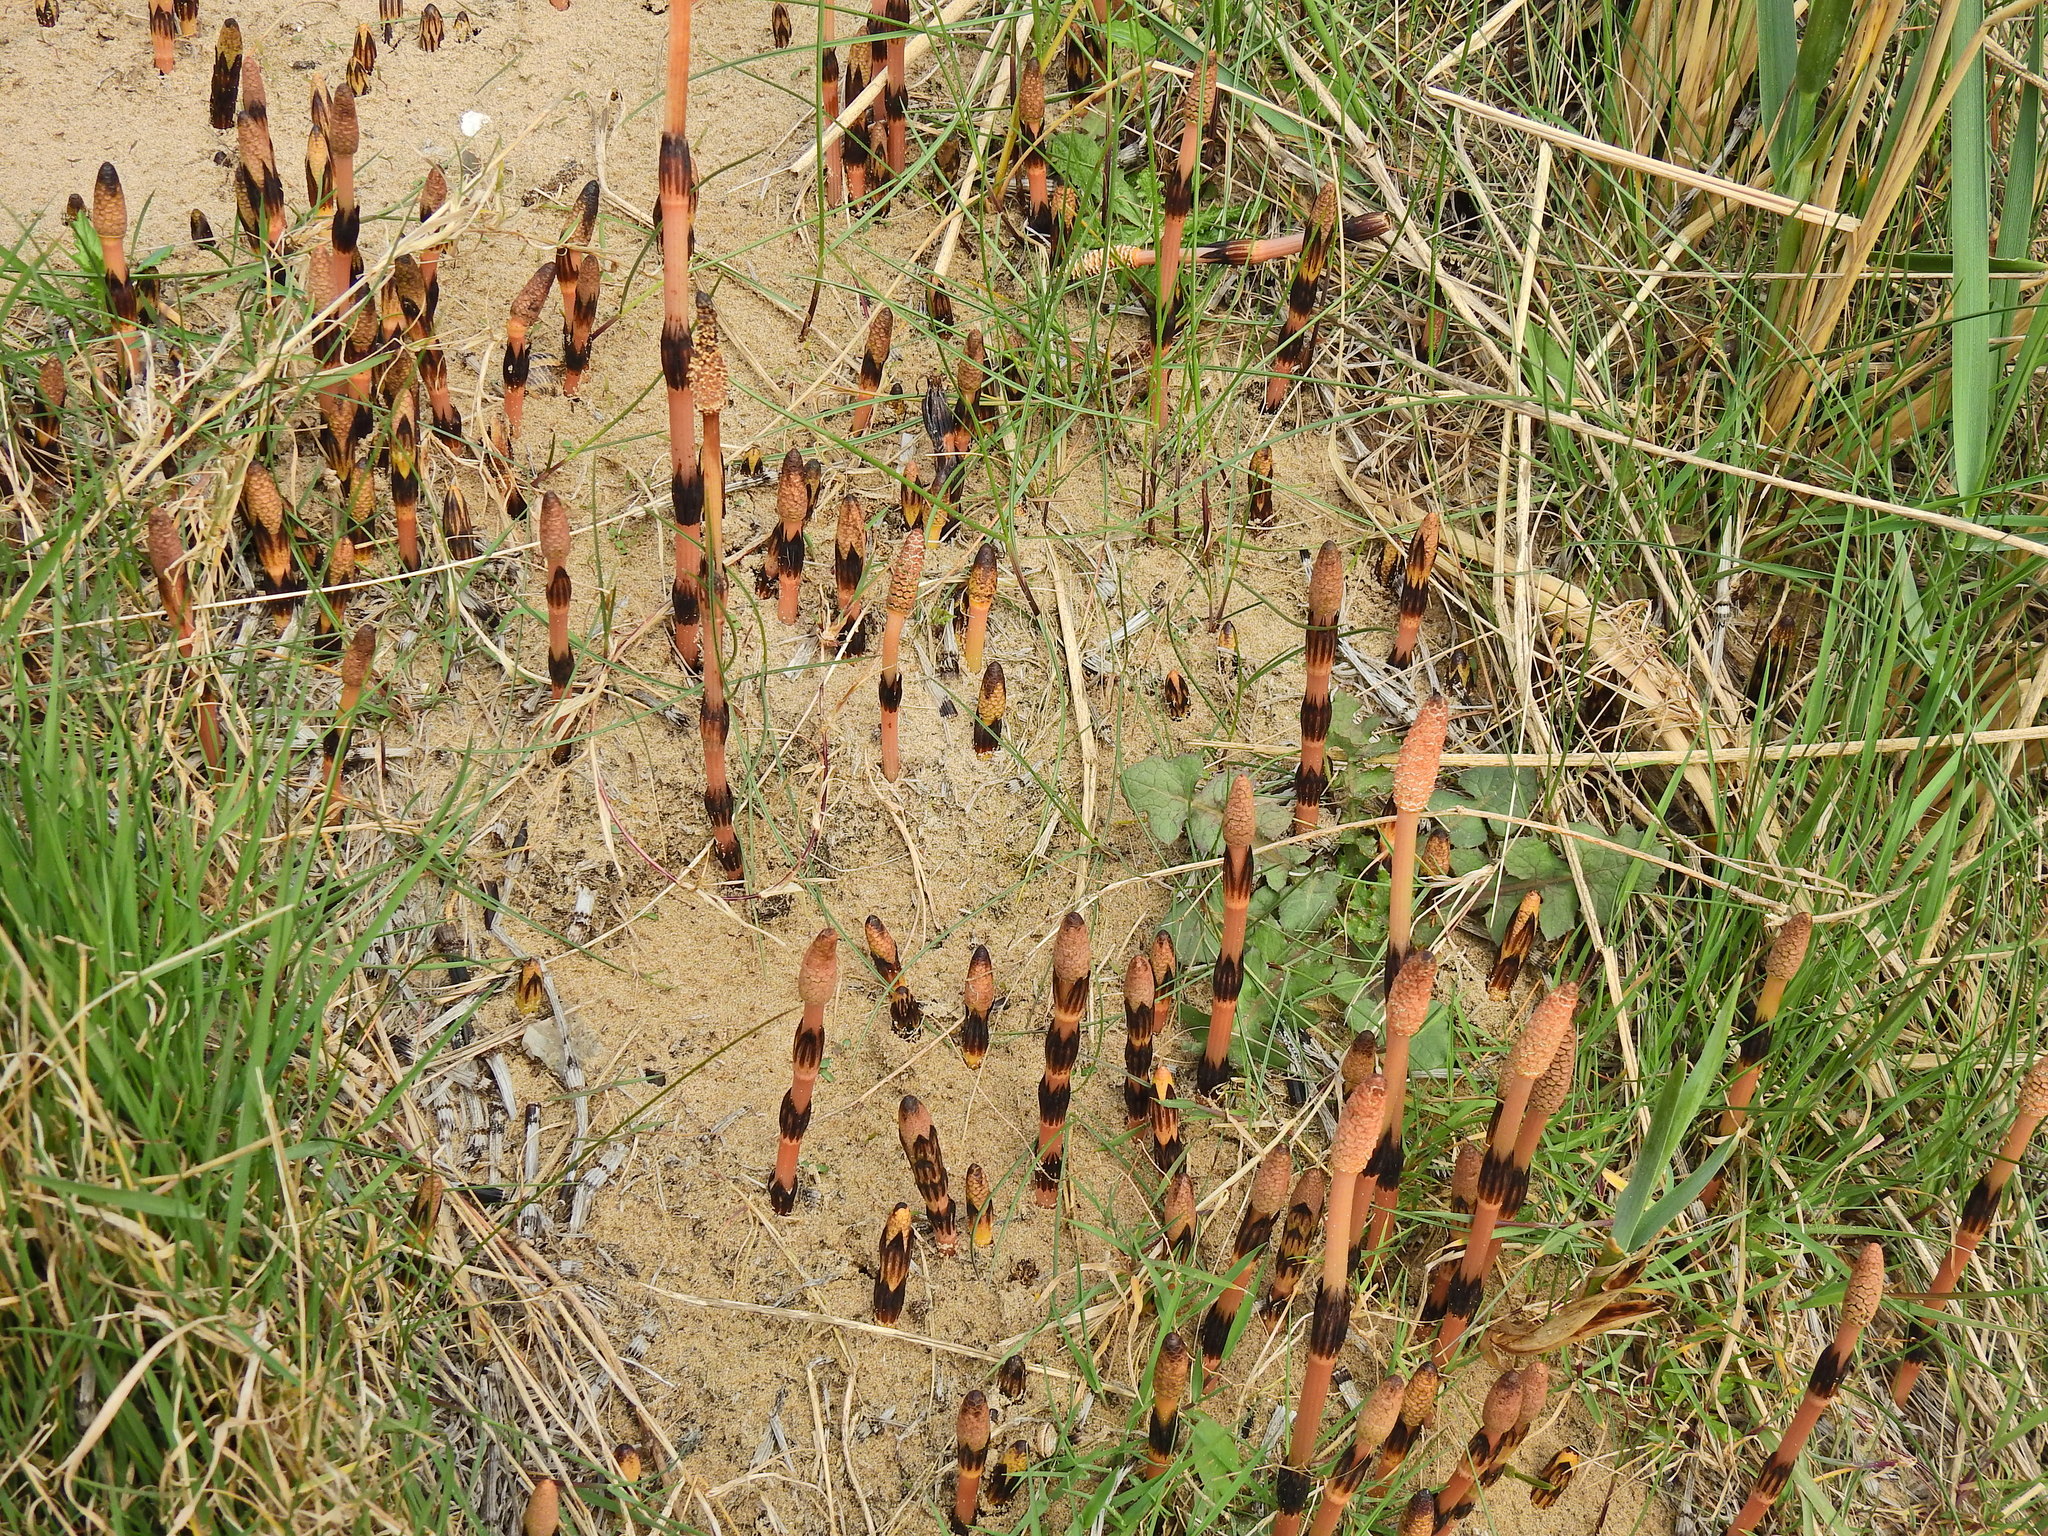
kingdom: Plantae
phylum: Tracheophyta
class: Polypodiopsida
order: Equisetales
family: Equisetaceae
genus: Equisetum
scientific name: Equisetum arvense
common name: Field horsetail
